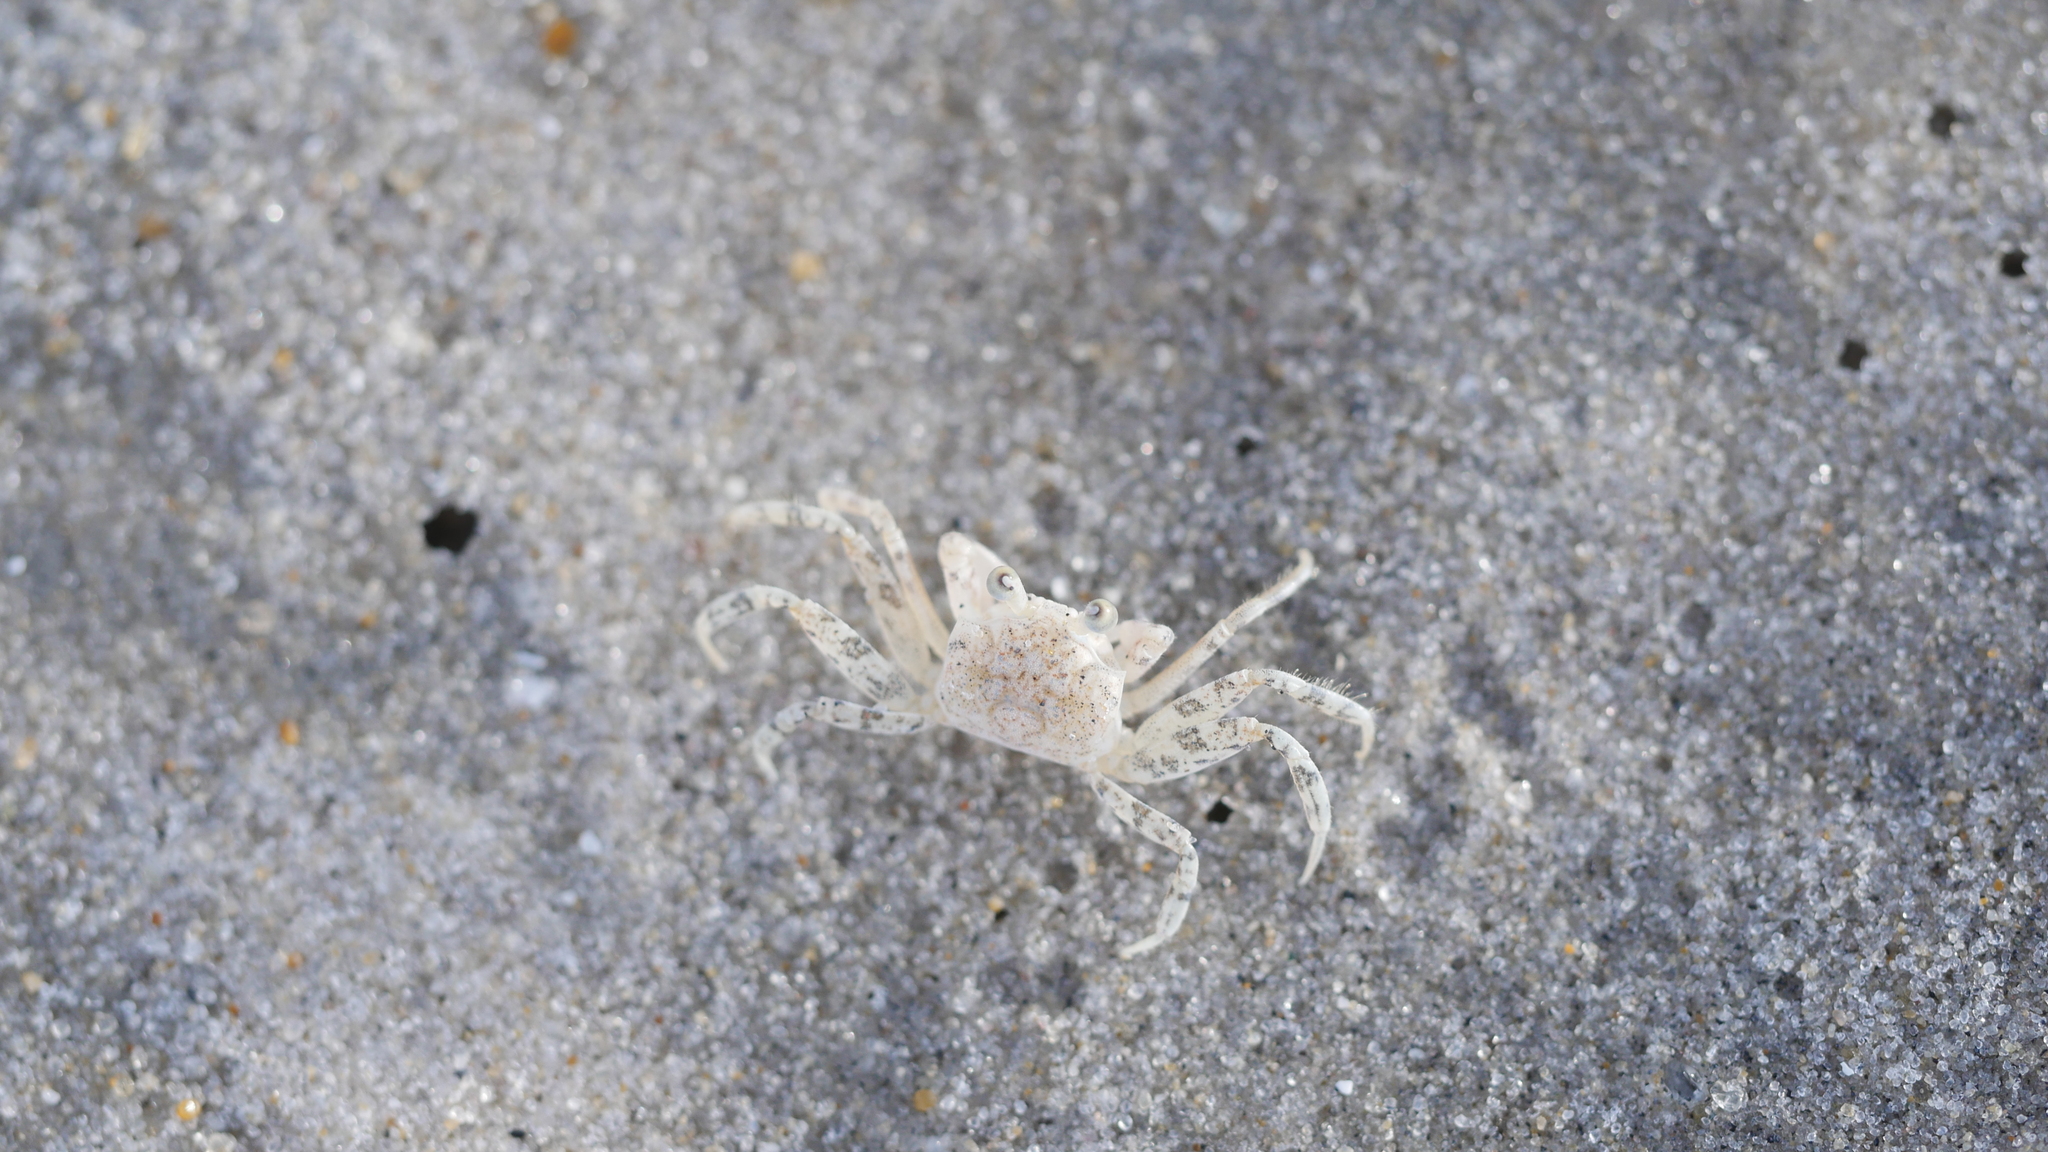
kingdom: Animalia
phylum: Arthropoda
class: Malacostraca
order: Decapoda
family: Ocypodidae
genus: Ocypode
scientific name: Ocypode quadrata
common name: Ghost crab
